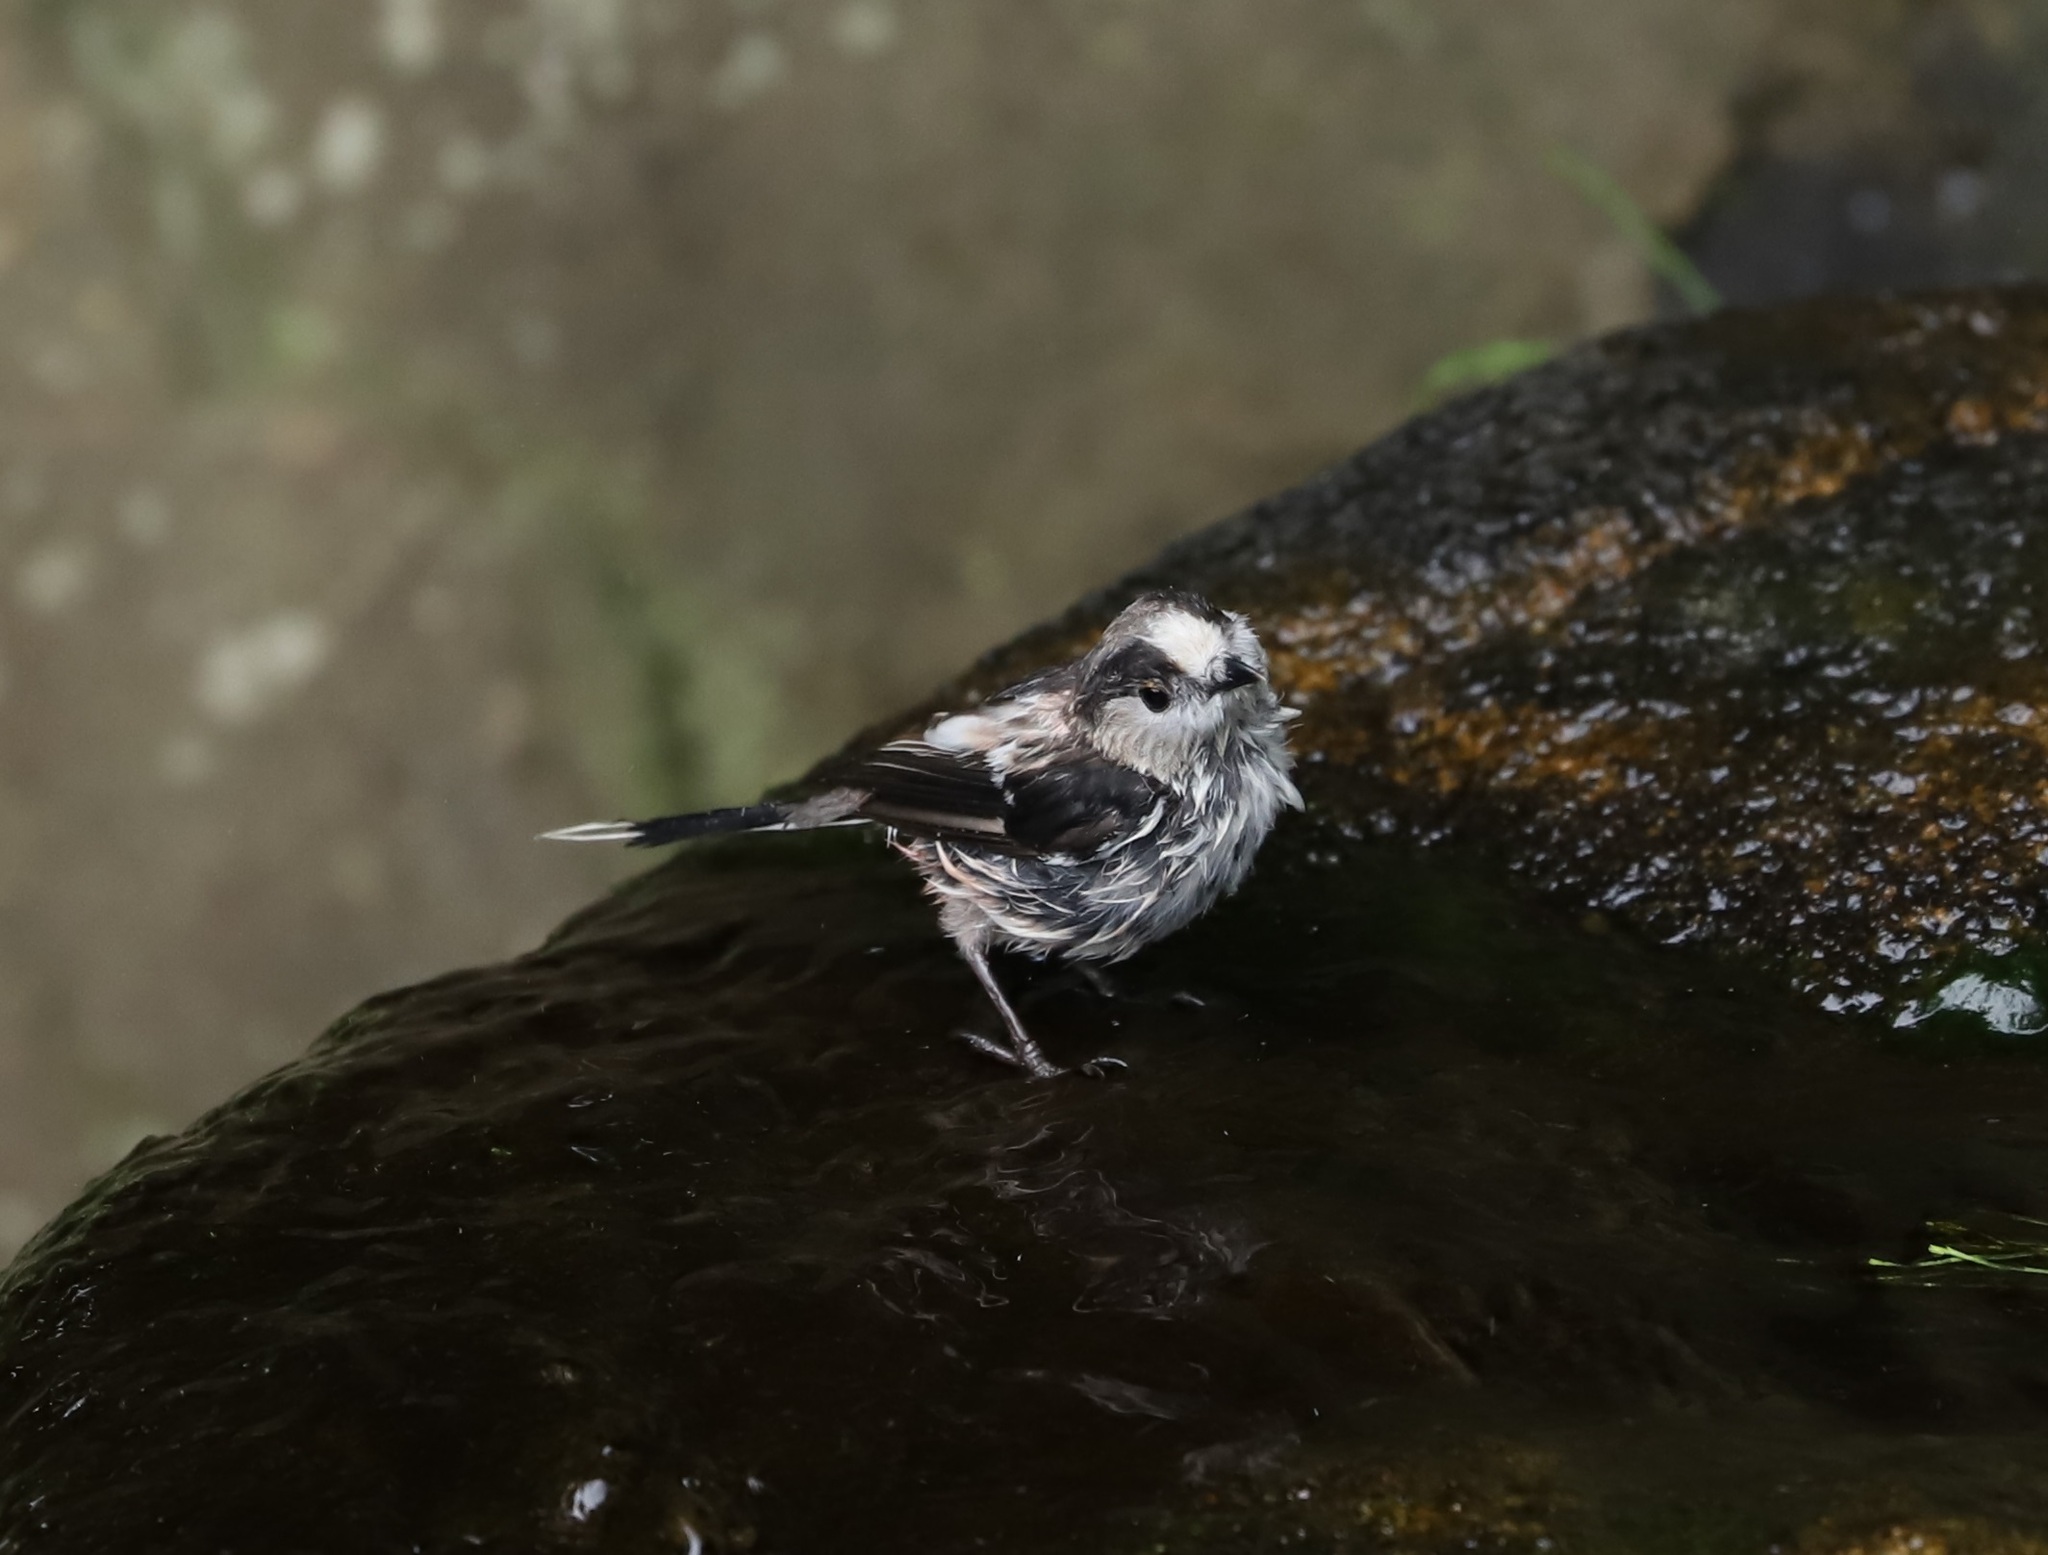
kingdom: Animalia
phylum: Chordata
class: Aves
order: Passeriformes
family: Aegithalidae
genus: Aegithalos
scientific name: Aegithalos caudatus
